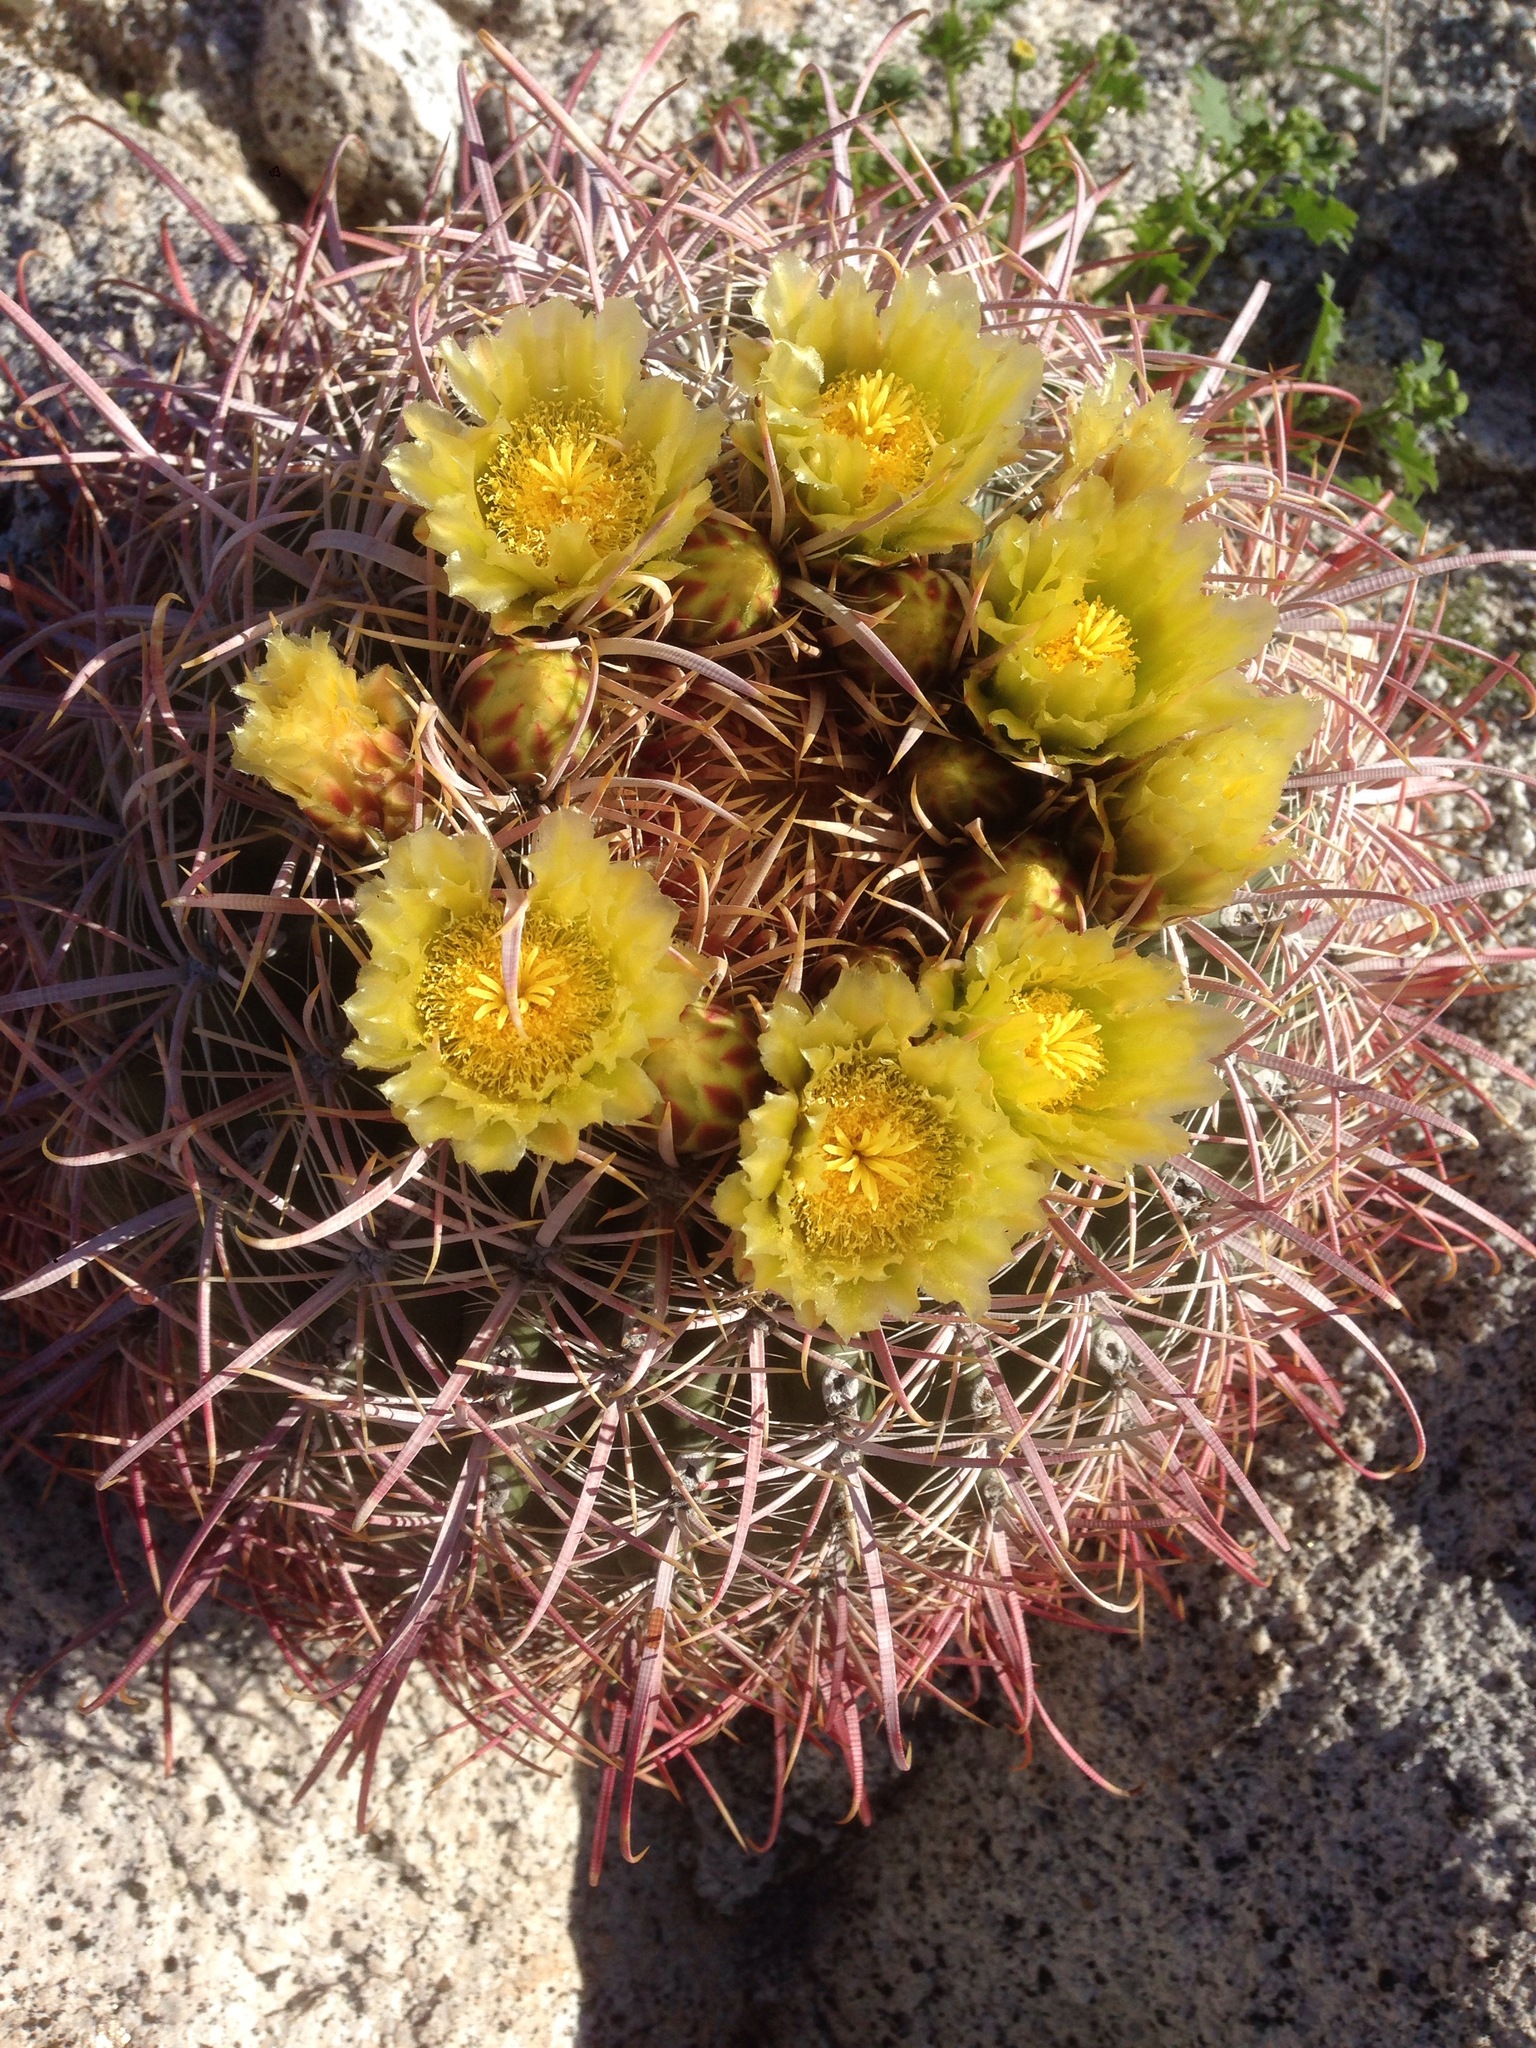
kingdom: Plantae
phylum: Tracheophyta
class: Magnoliopsida
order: Caryophyllales
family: Cactaceae
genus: Ferocactus
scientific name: Ferocactus cylindraceus
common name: California barrel cactus
